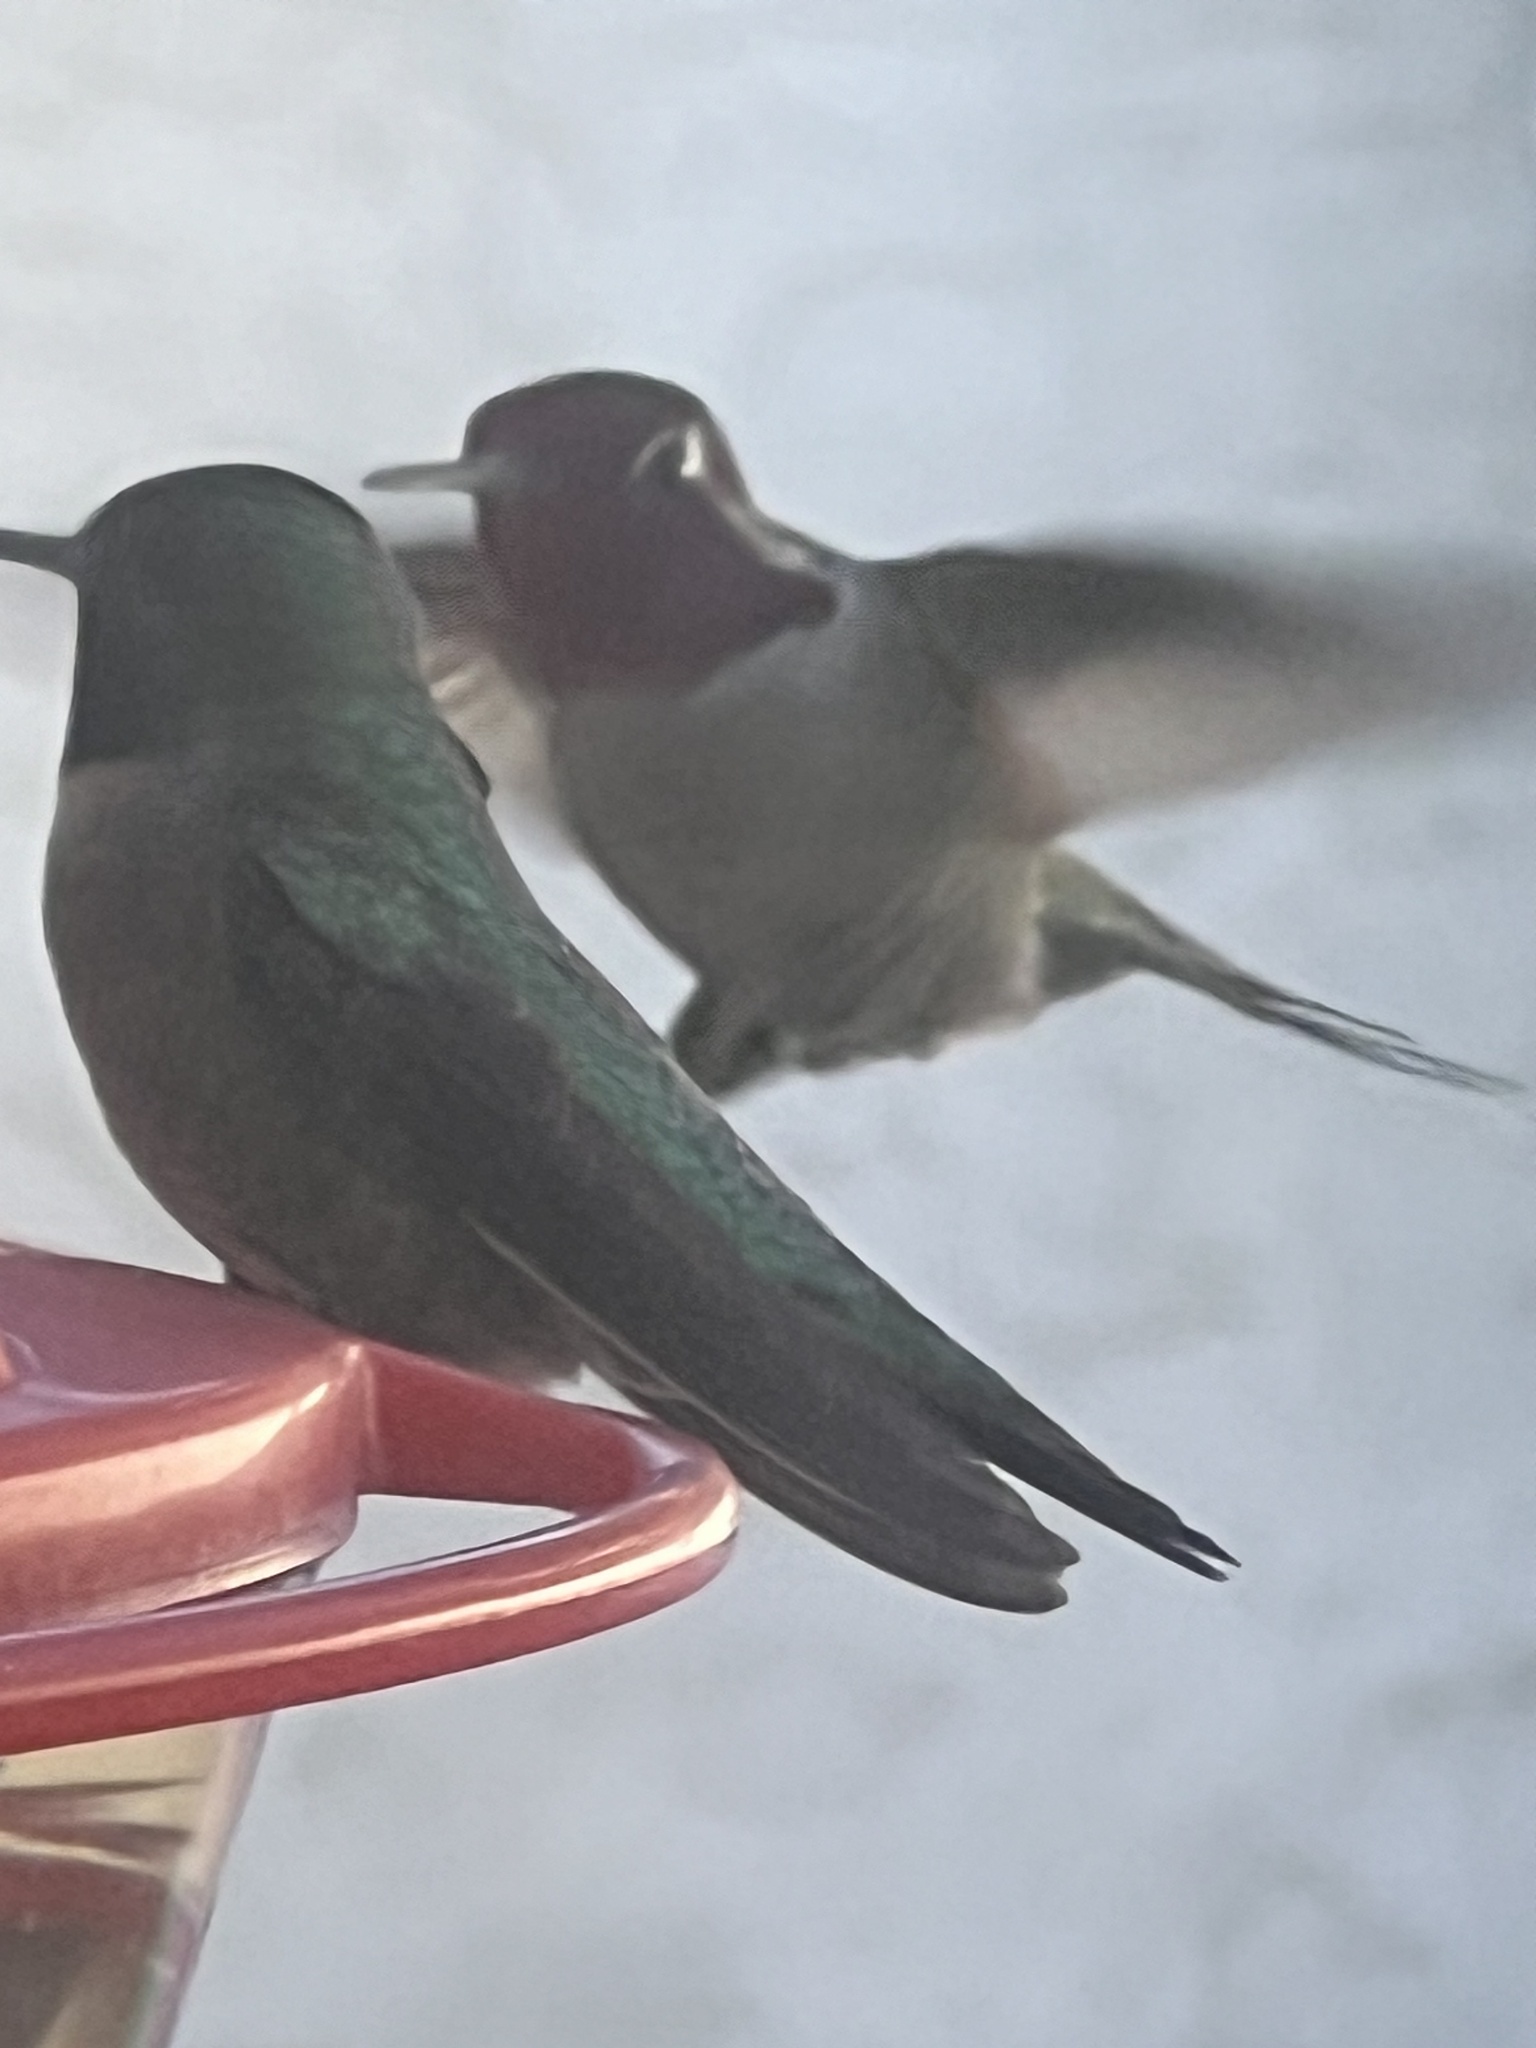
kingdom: Animalia
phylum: Chordata
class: Aves
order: Apodiformes
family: Trochilidae
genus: Calypte
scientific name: Calypte anna
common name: Anna's hummingbird
